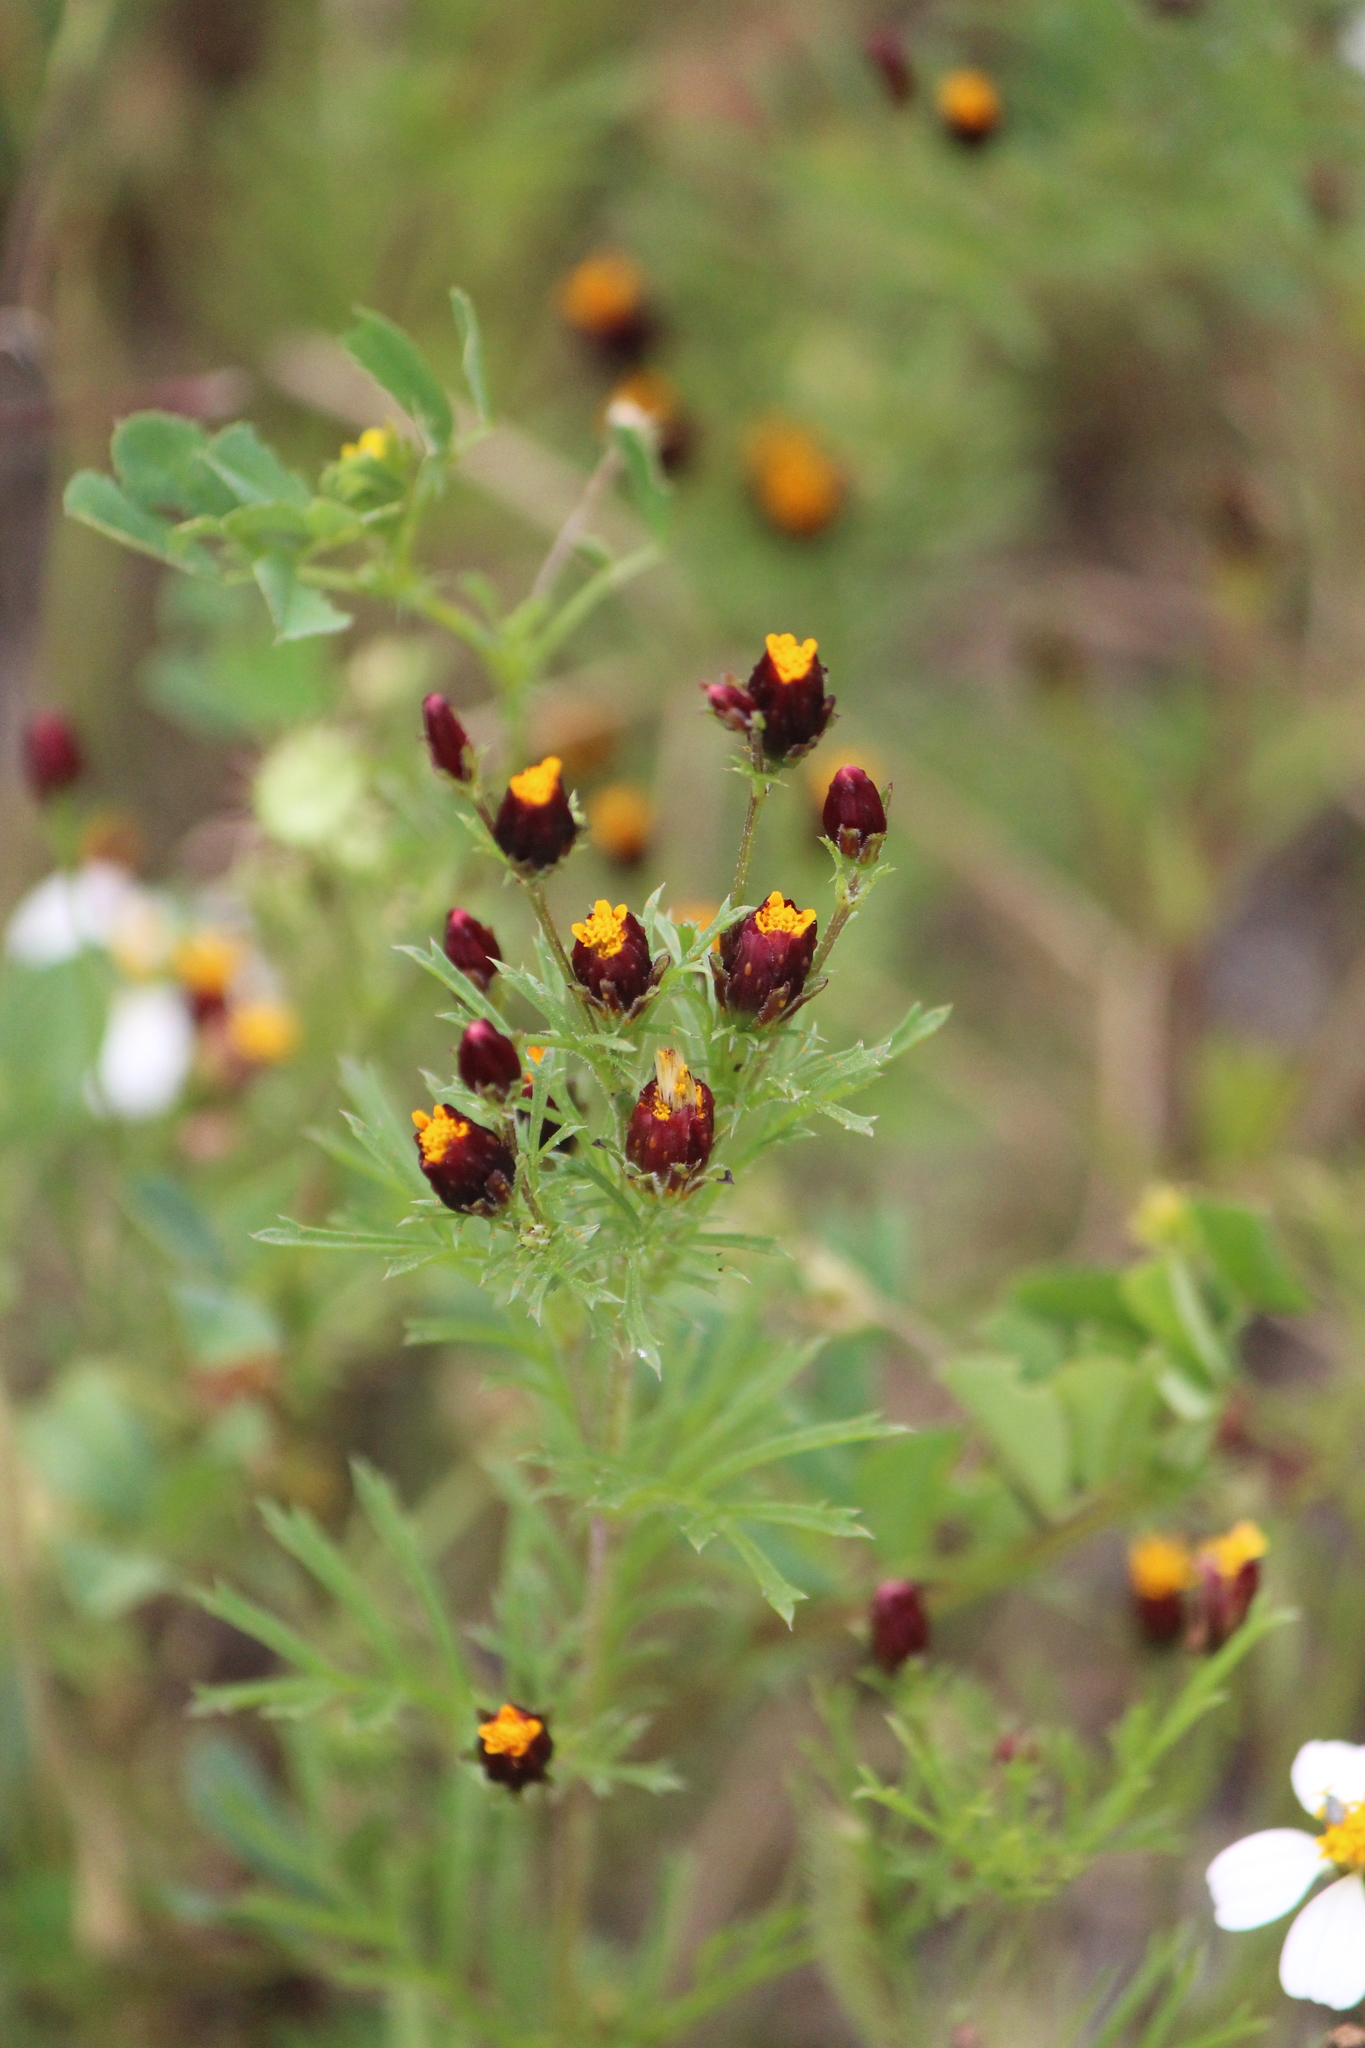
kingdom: Plantae
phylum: Tracheophyta
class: Magnoliopsida
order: Asterales
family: Asteraceae
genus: Dyssodia
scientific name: Dyssodia papposa
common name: Dogweed
